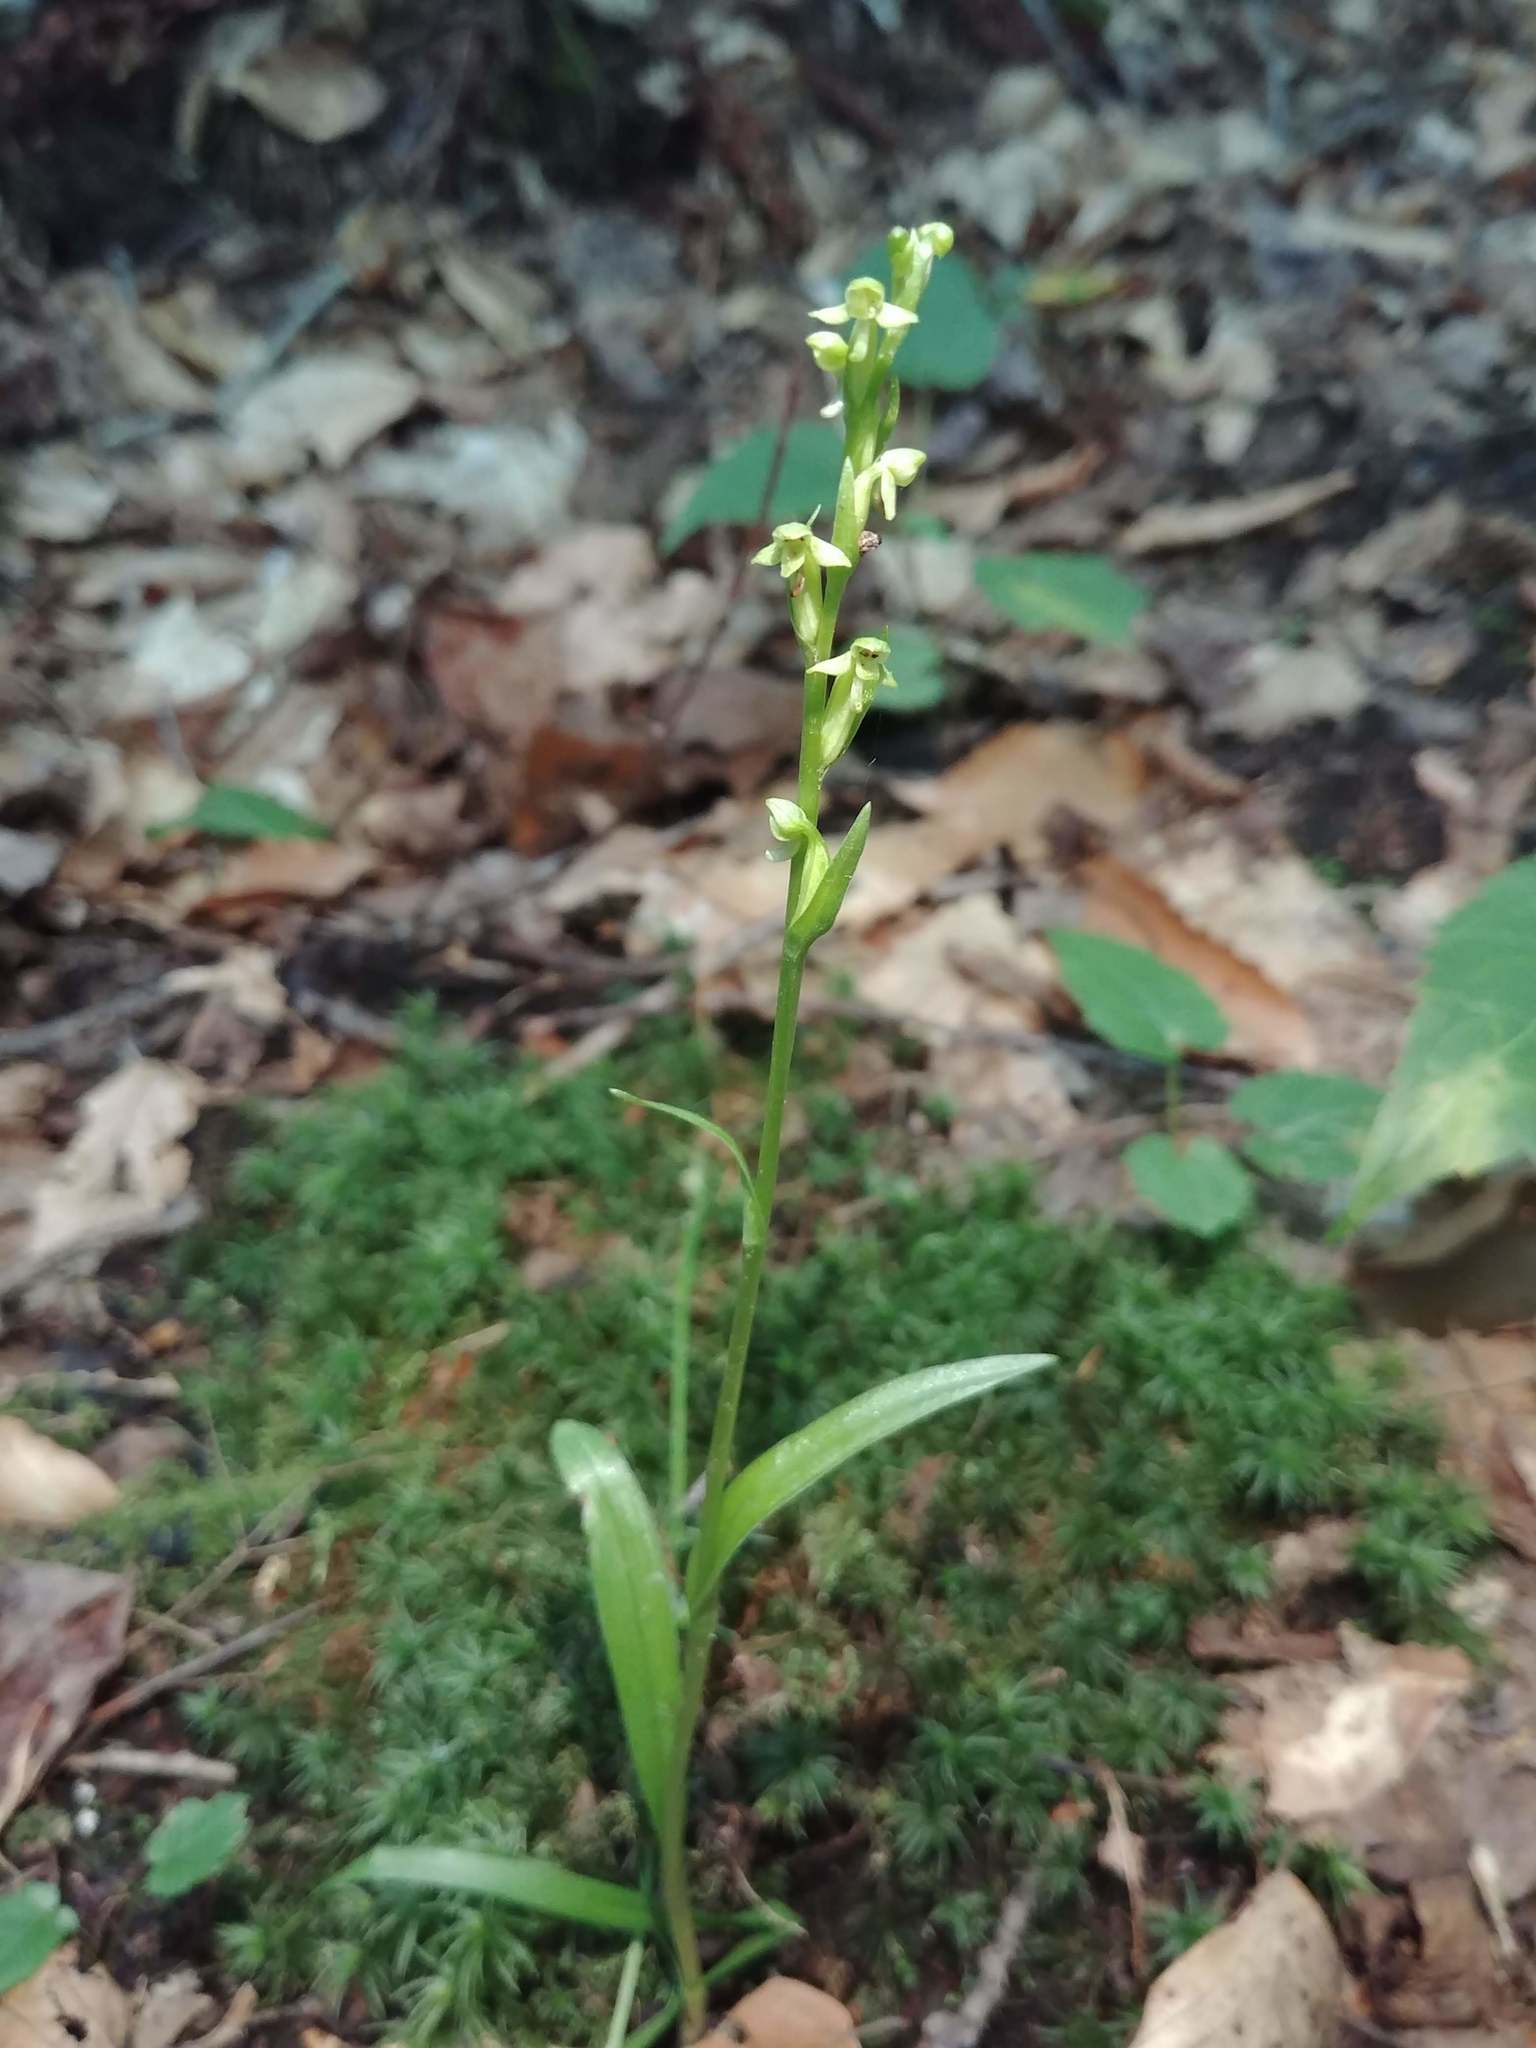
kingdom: Plantae
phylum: Tracheophyta
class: Liliopsida
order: Asparagales
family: Orchidaceae
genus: Platanthera
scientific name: Platanthera aquilonis
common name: Northern green orchid
